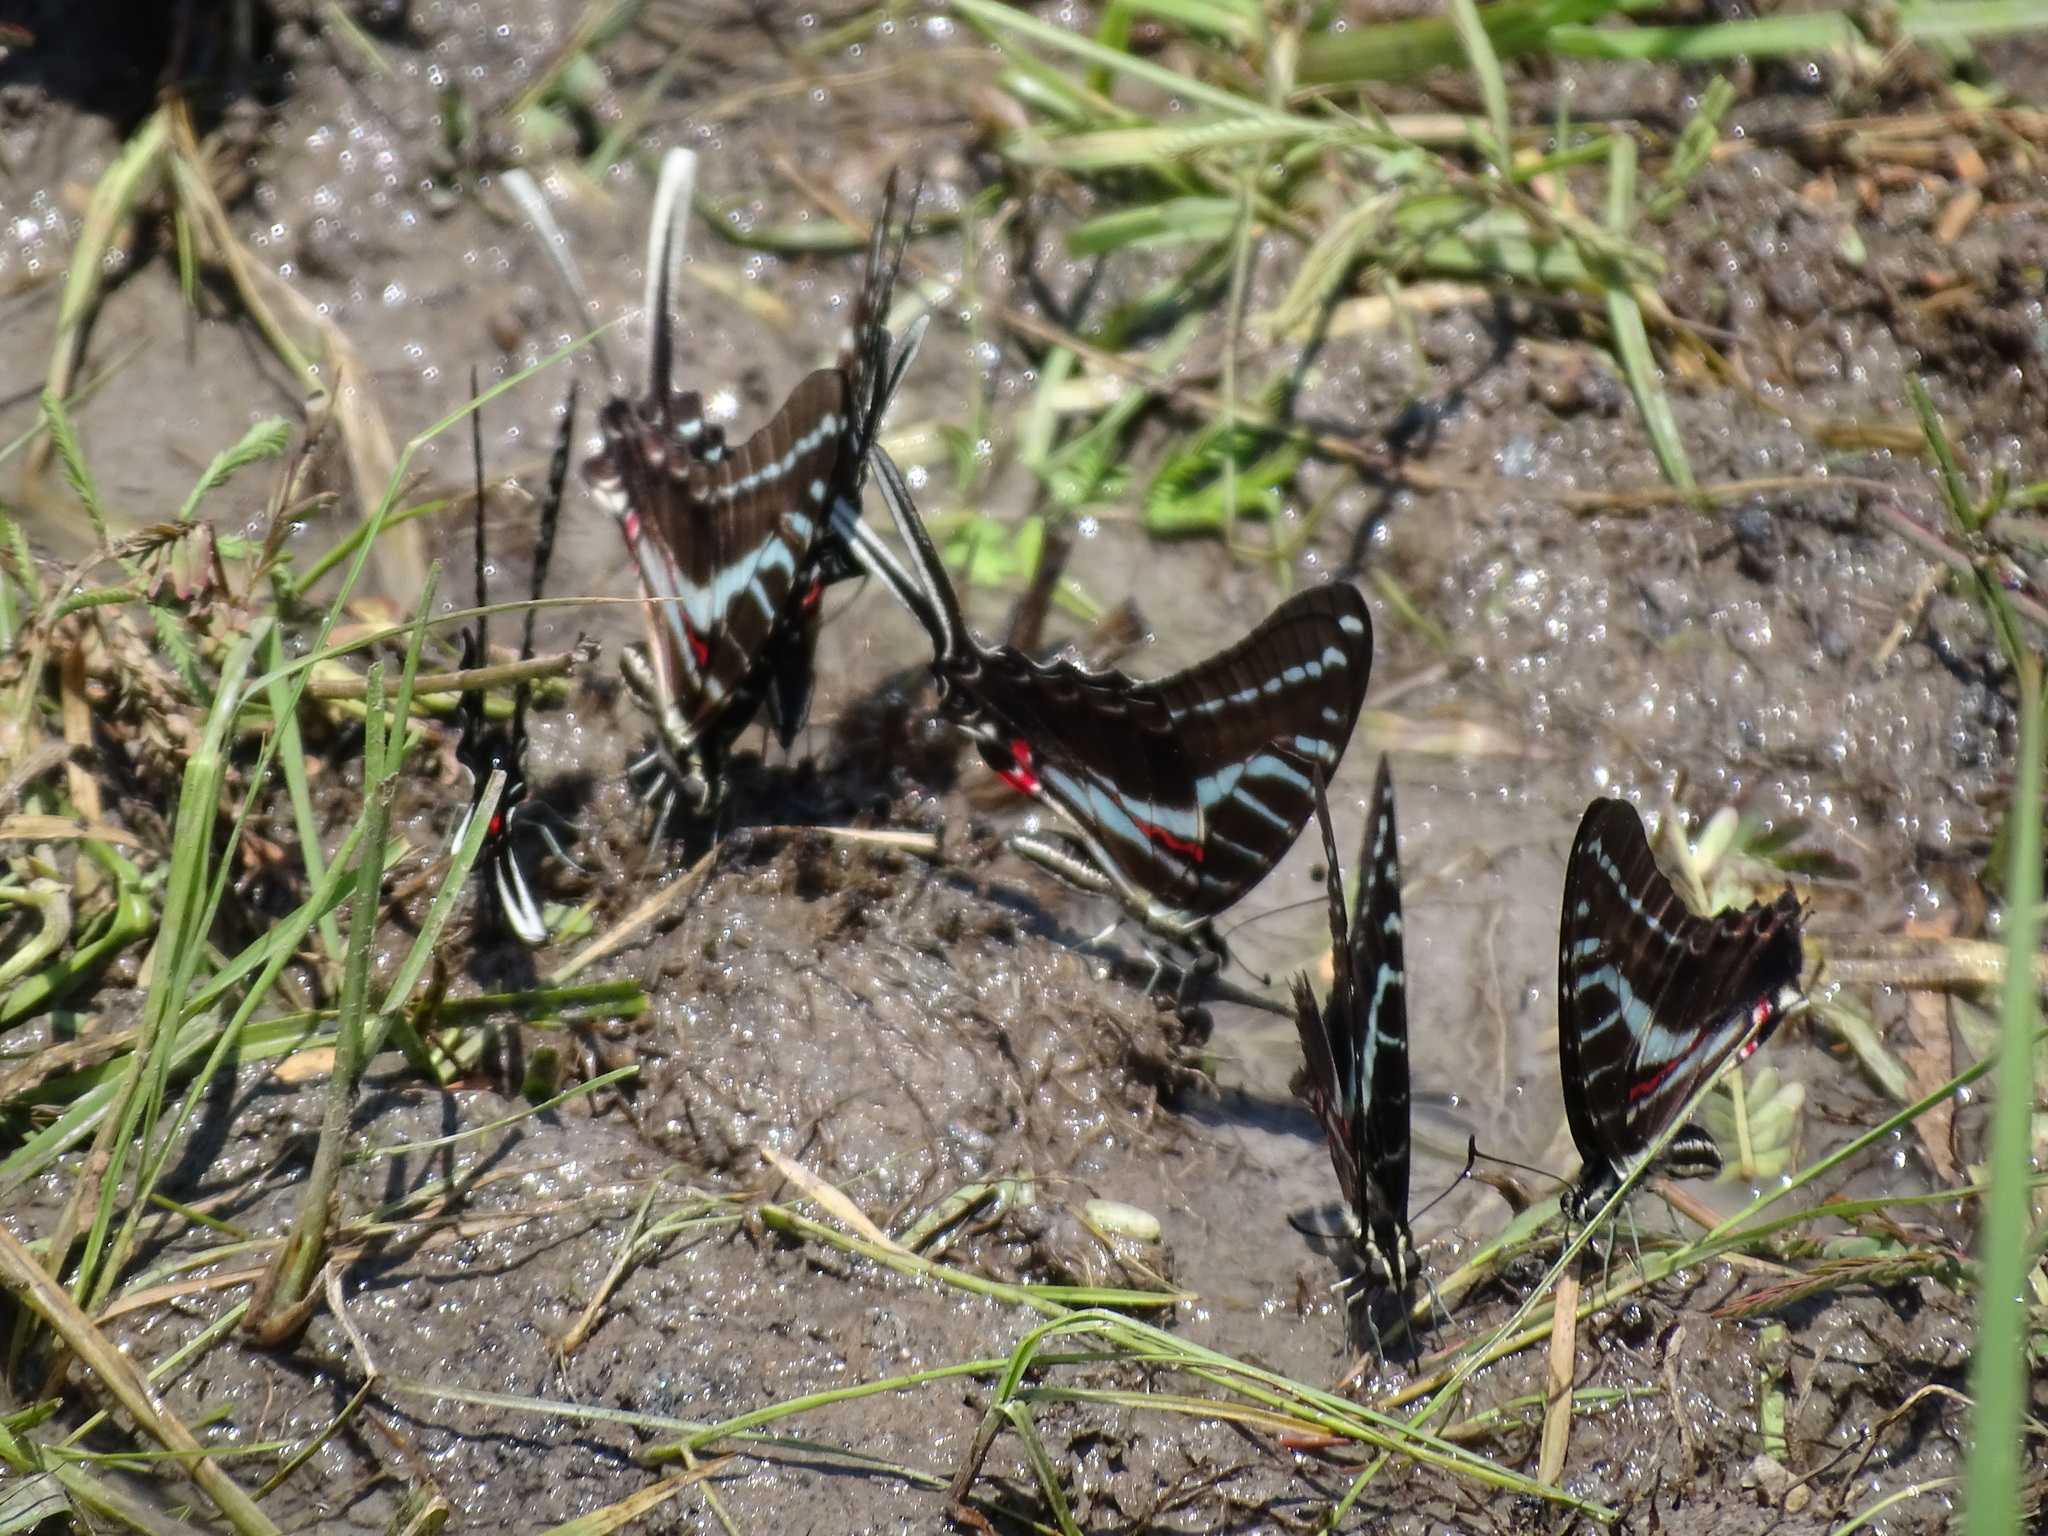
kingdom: Animalia
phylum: Arthropoda
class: Insecta
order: Lepidoptera
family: Papilionidae
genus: Protographium
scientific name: Protographium philolaus
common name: Dark zebra swallowtail
